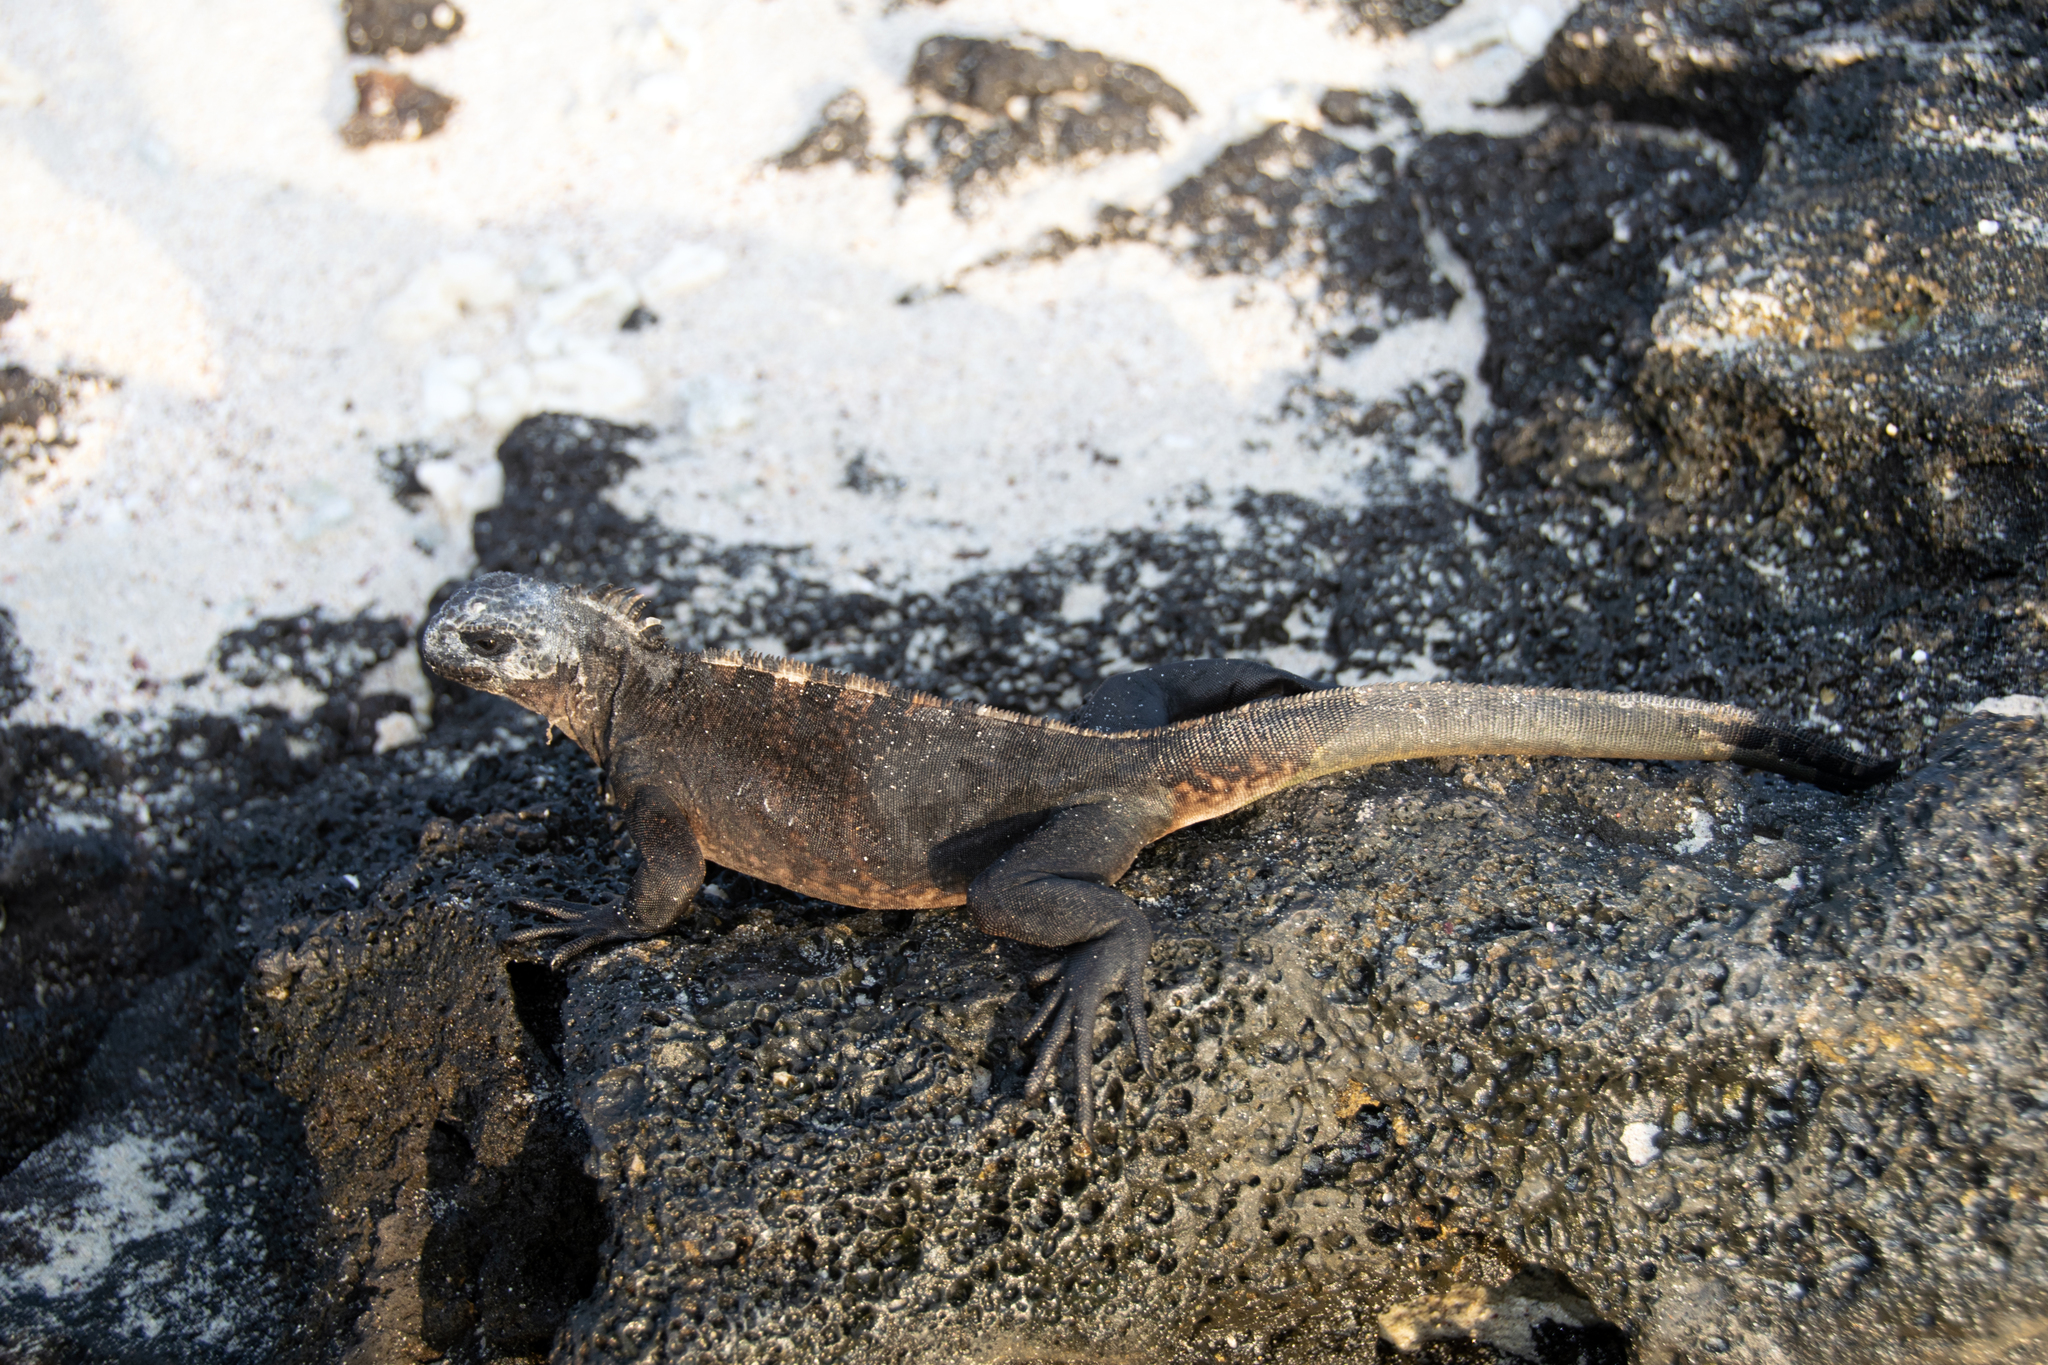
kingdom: Animalia
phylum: Chordata
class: Squamata
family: Iguanidae
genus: Amblyrhynchus
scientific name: Amblyrhynchus cristatus
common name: Marine iguana
